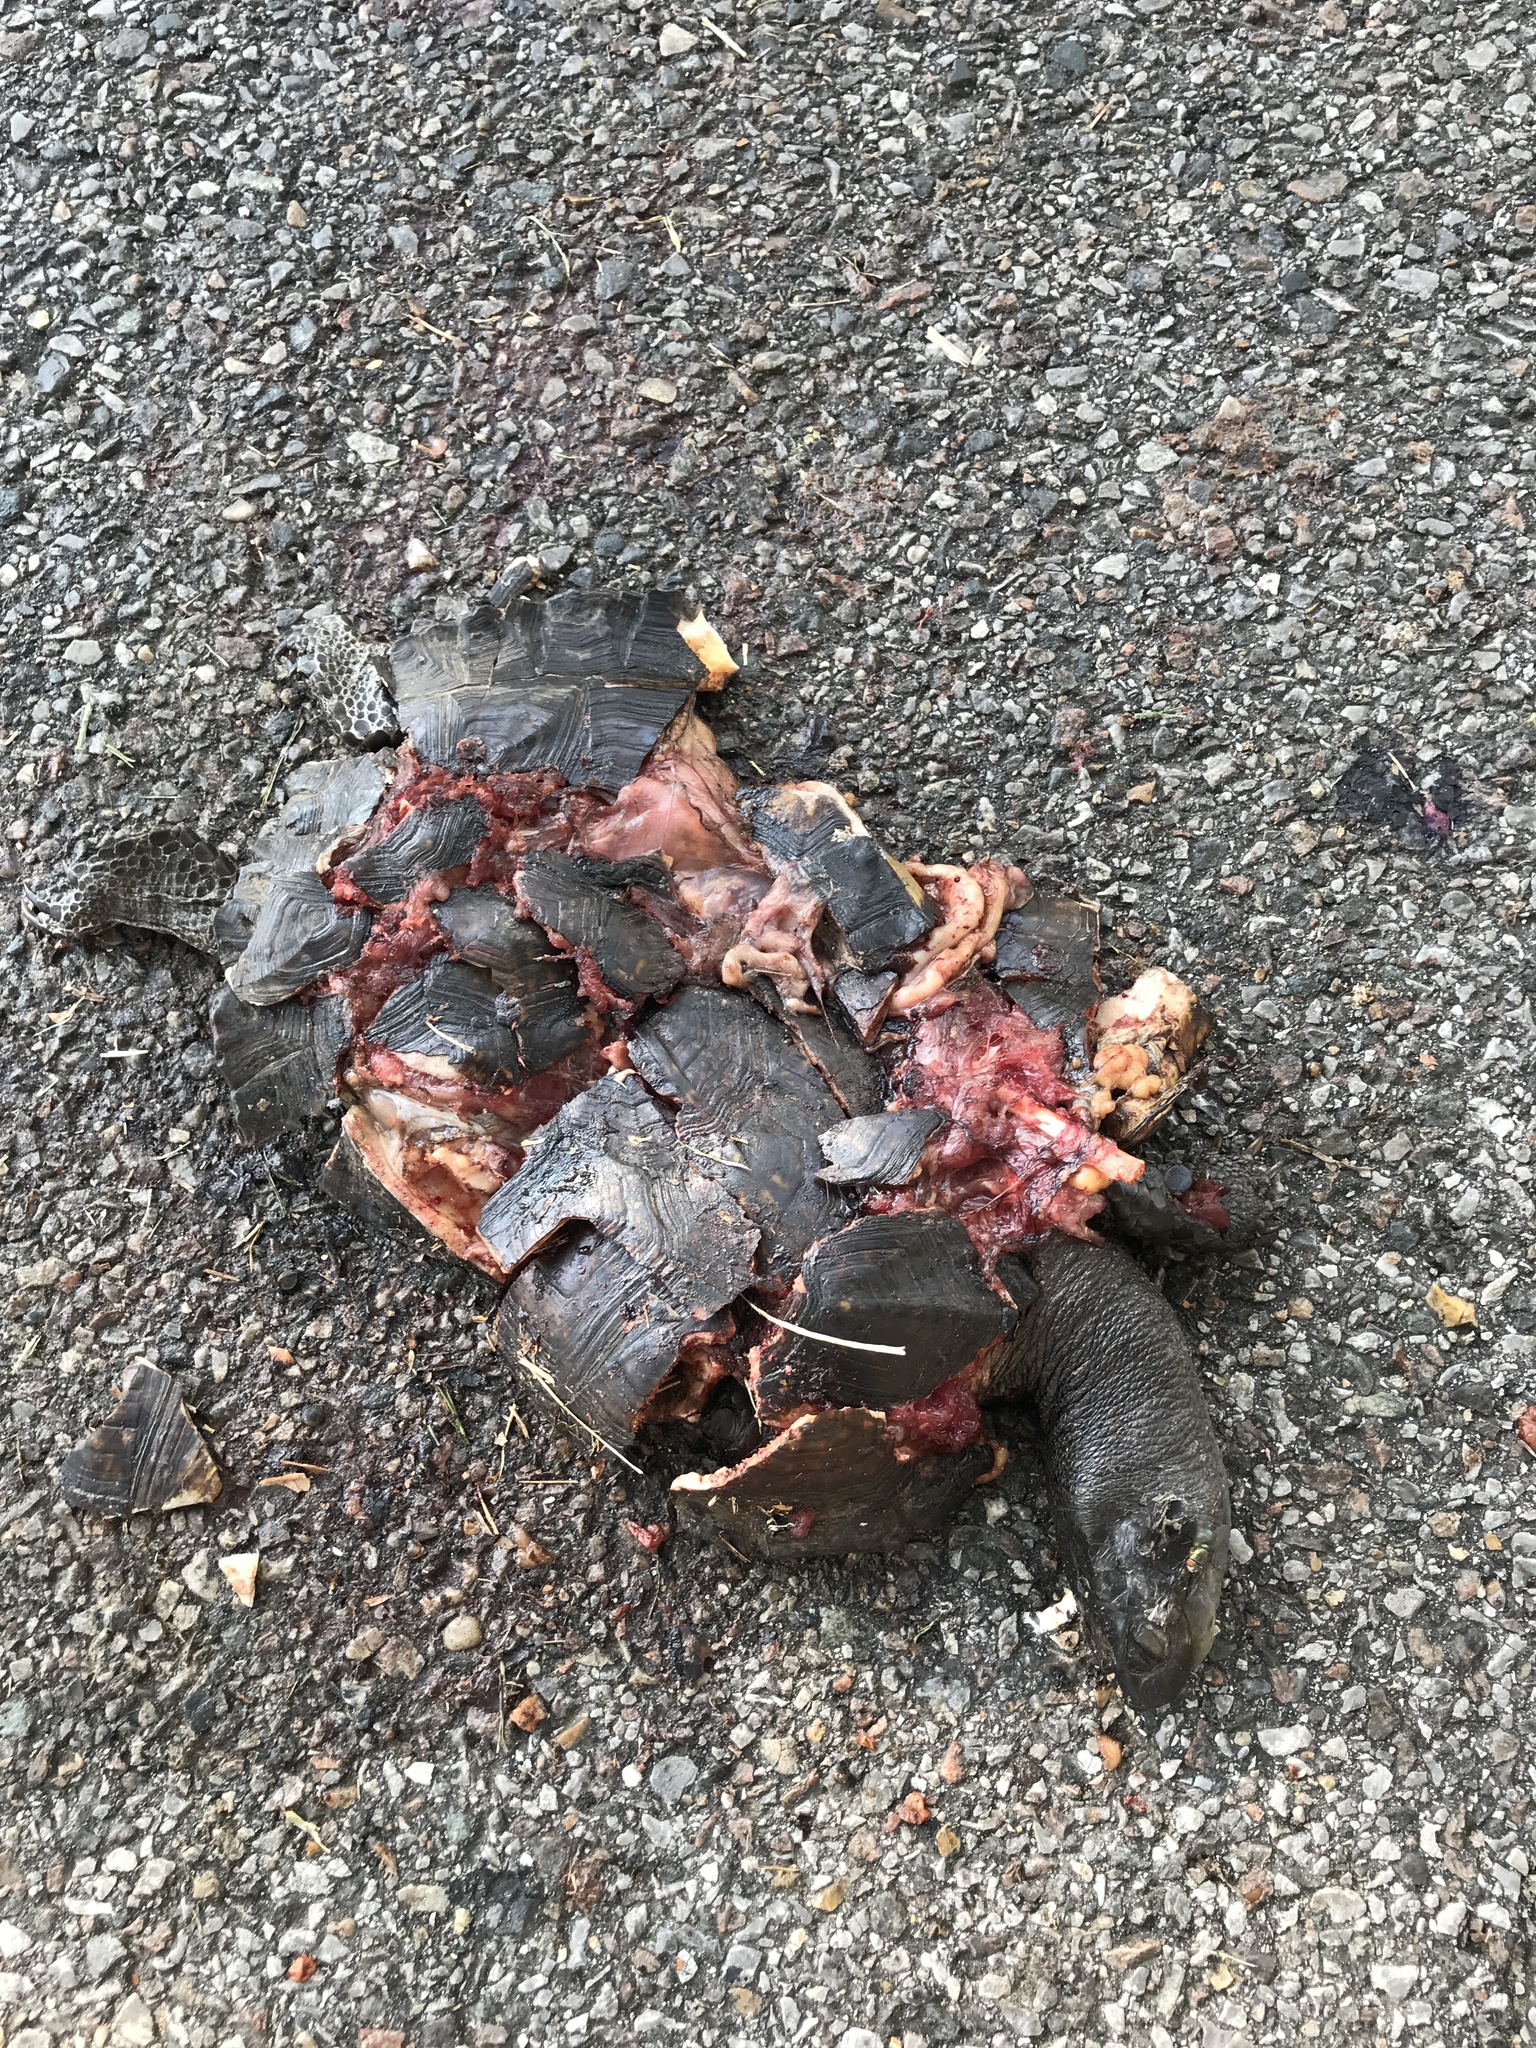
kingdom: Animalia
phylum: Chordata
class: Testudines
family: Emydidae
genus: Terrapene
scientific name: Terrapene carolina
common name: Common box turtle
